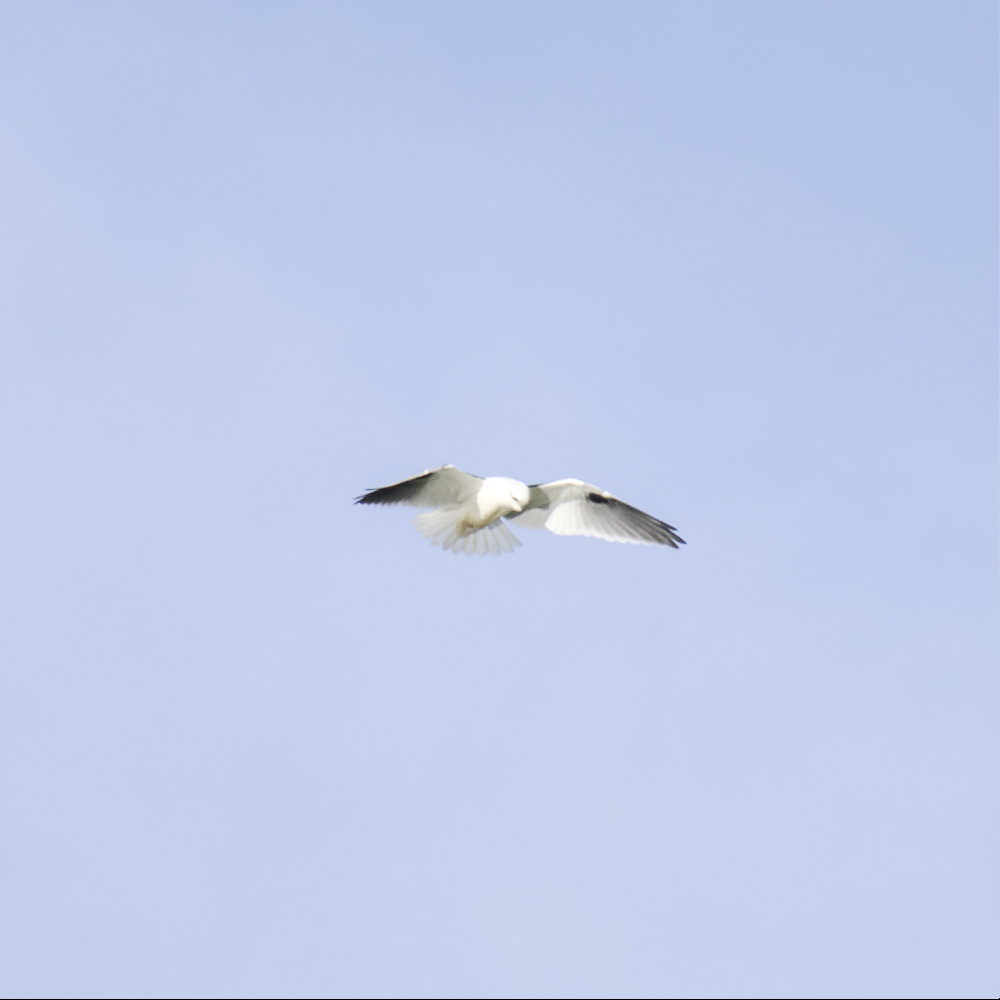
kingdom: Animalia
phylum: Chordata
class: Aves
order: Accipitriformes
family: Accipitridae
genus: Elanus
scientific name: Elanus axillaris
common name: Black-shouldered kite
